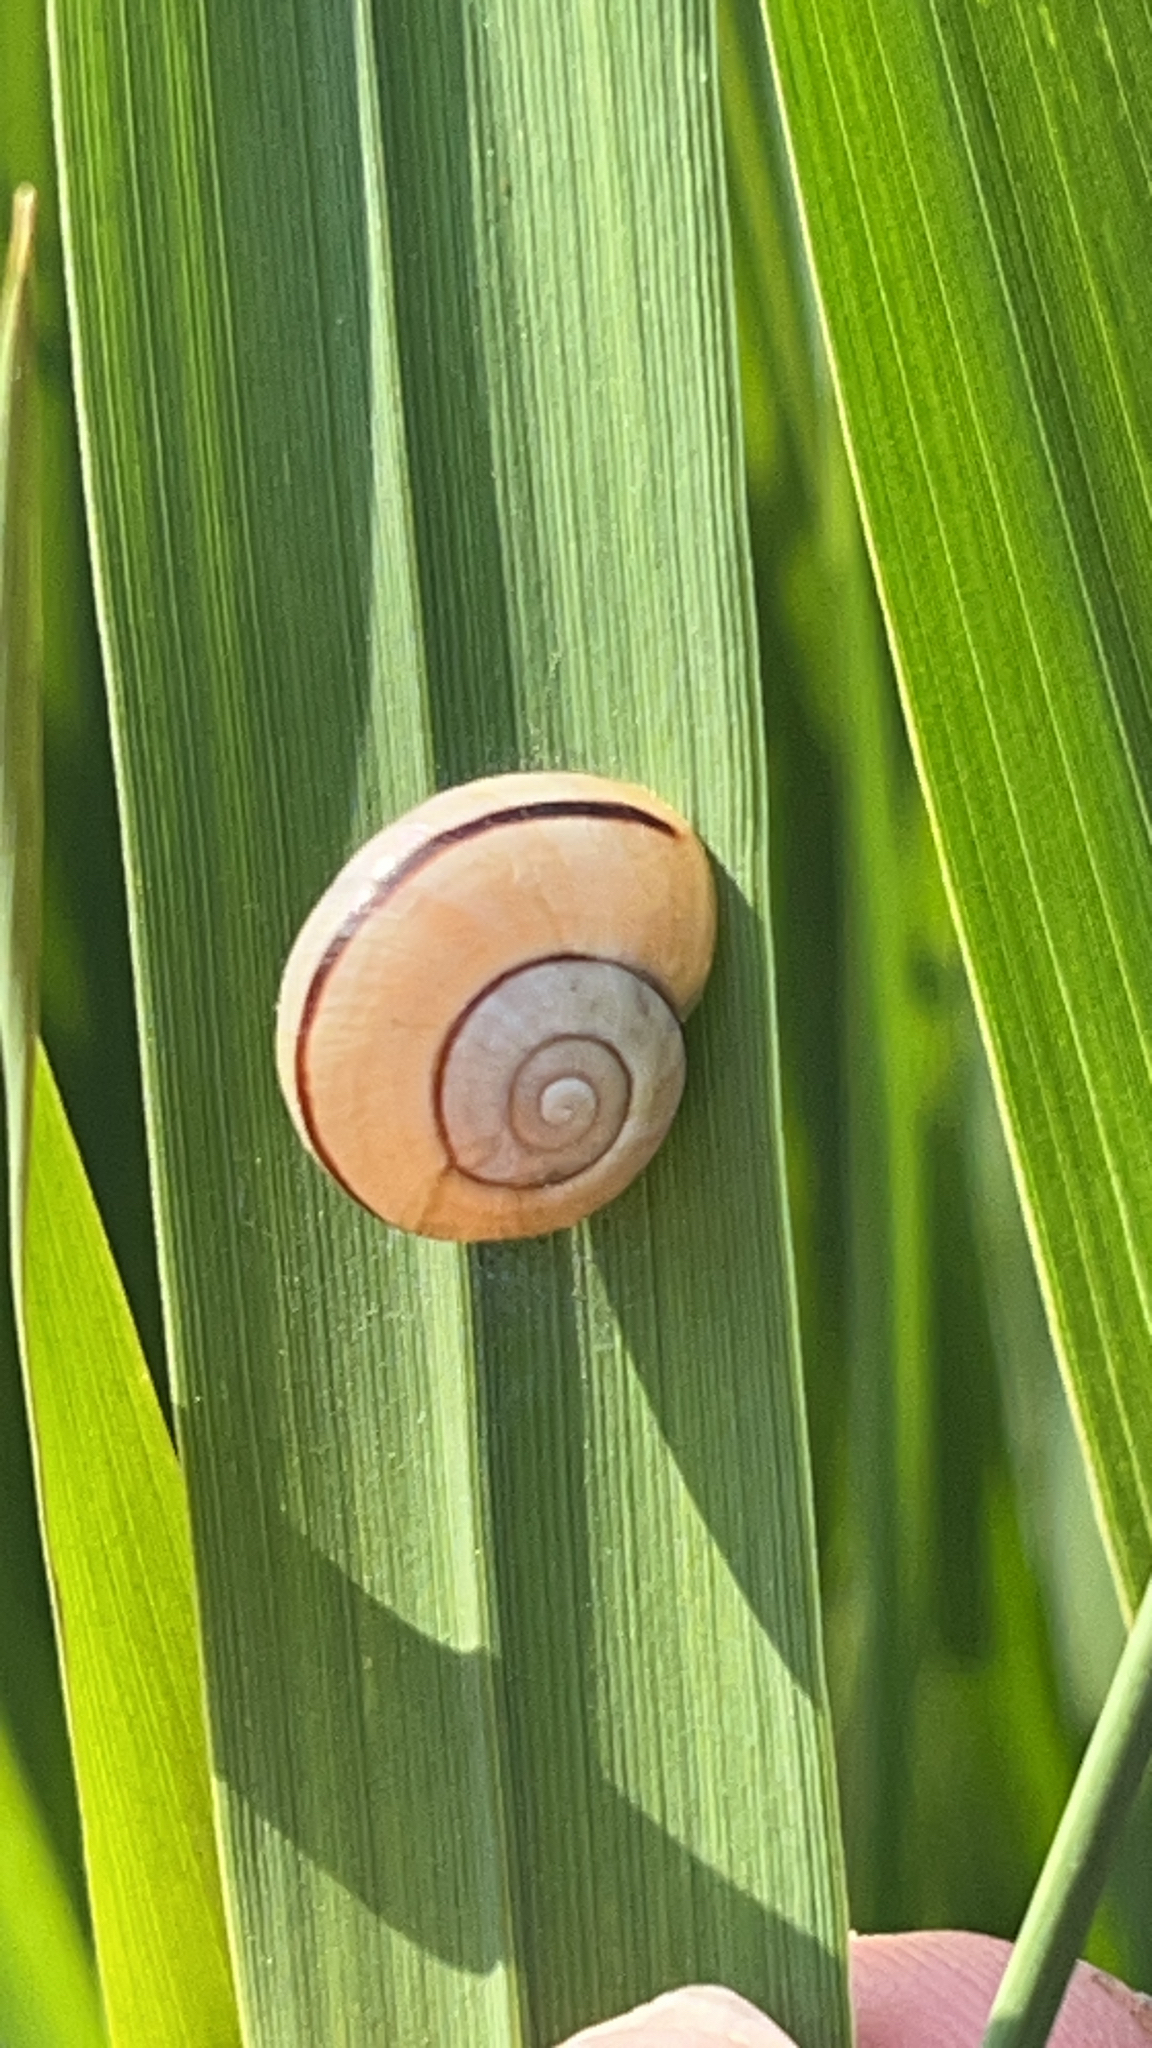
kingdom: Animalia
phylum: Mollusca
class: Gastropoda
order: Stylommatophora
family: Helicidae
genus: Cepaea
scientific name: Cepaea nemoralis
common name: Grovesnail
